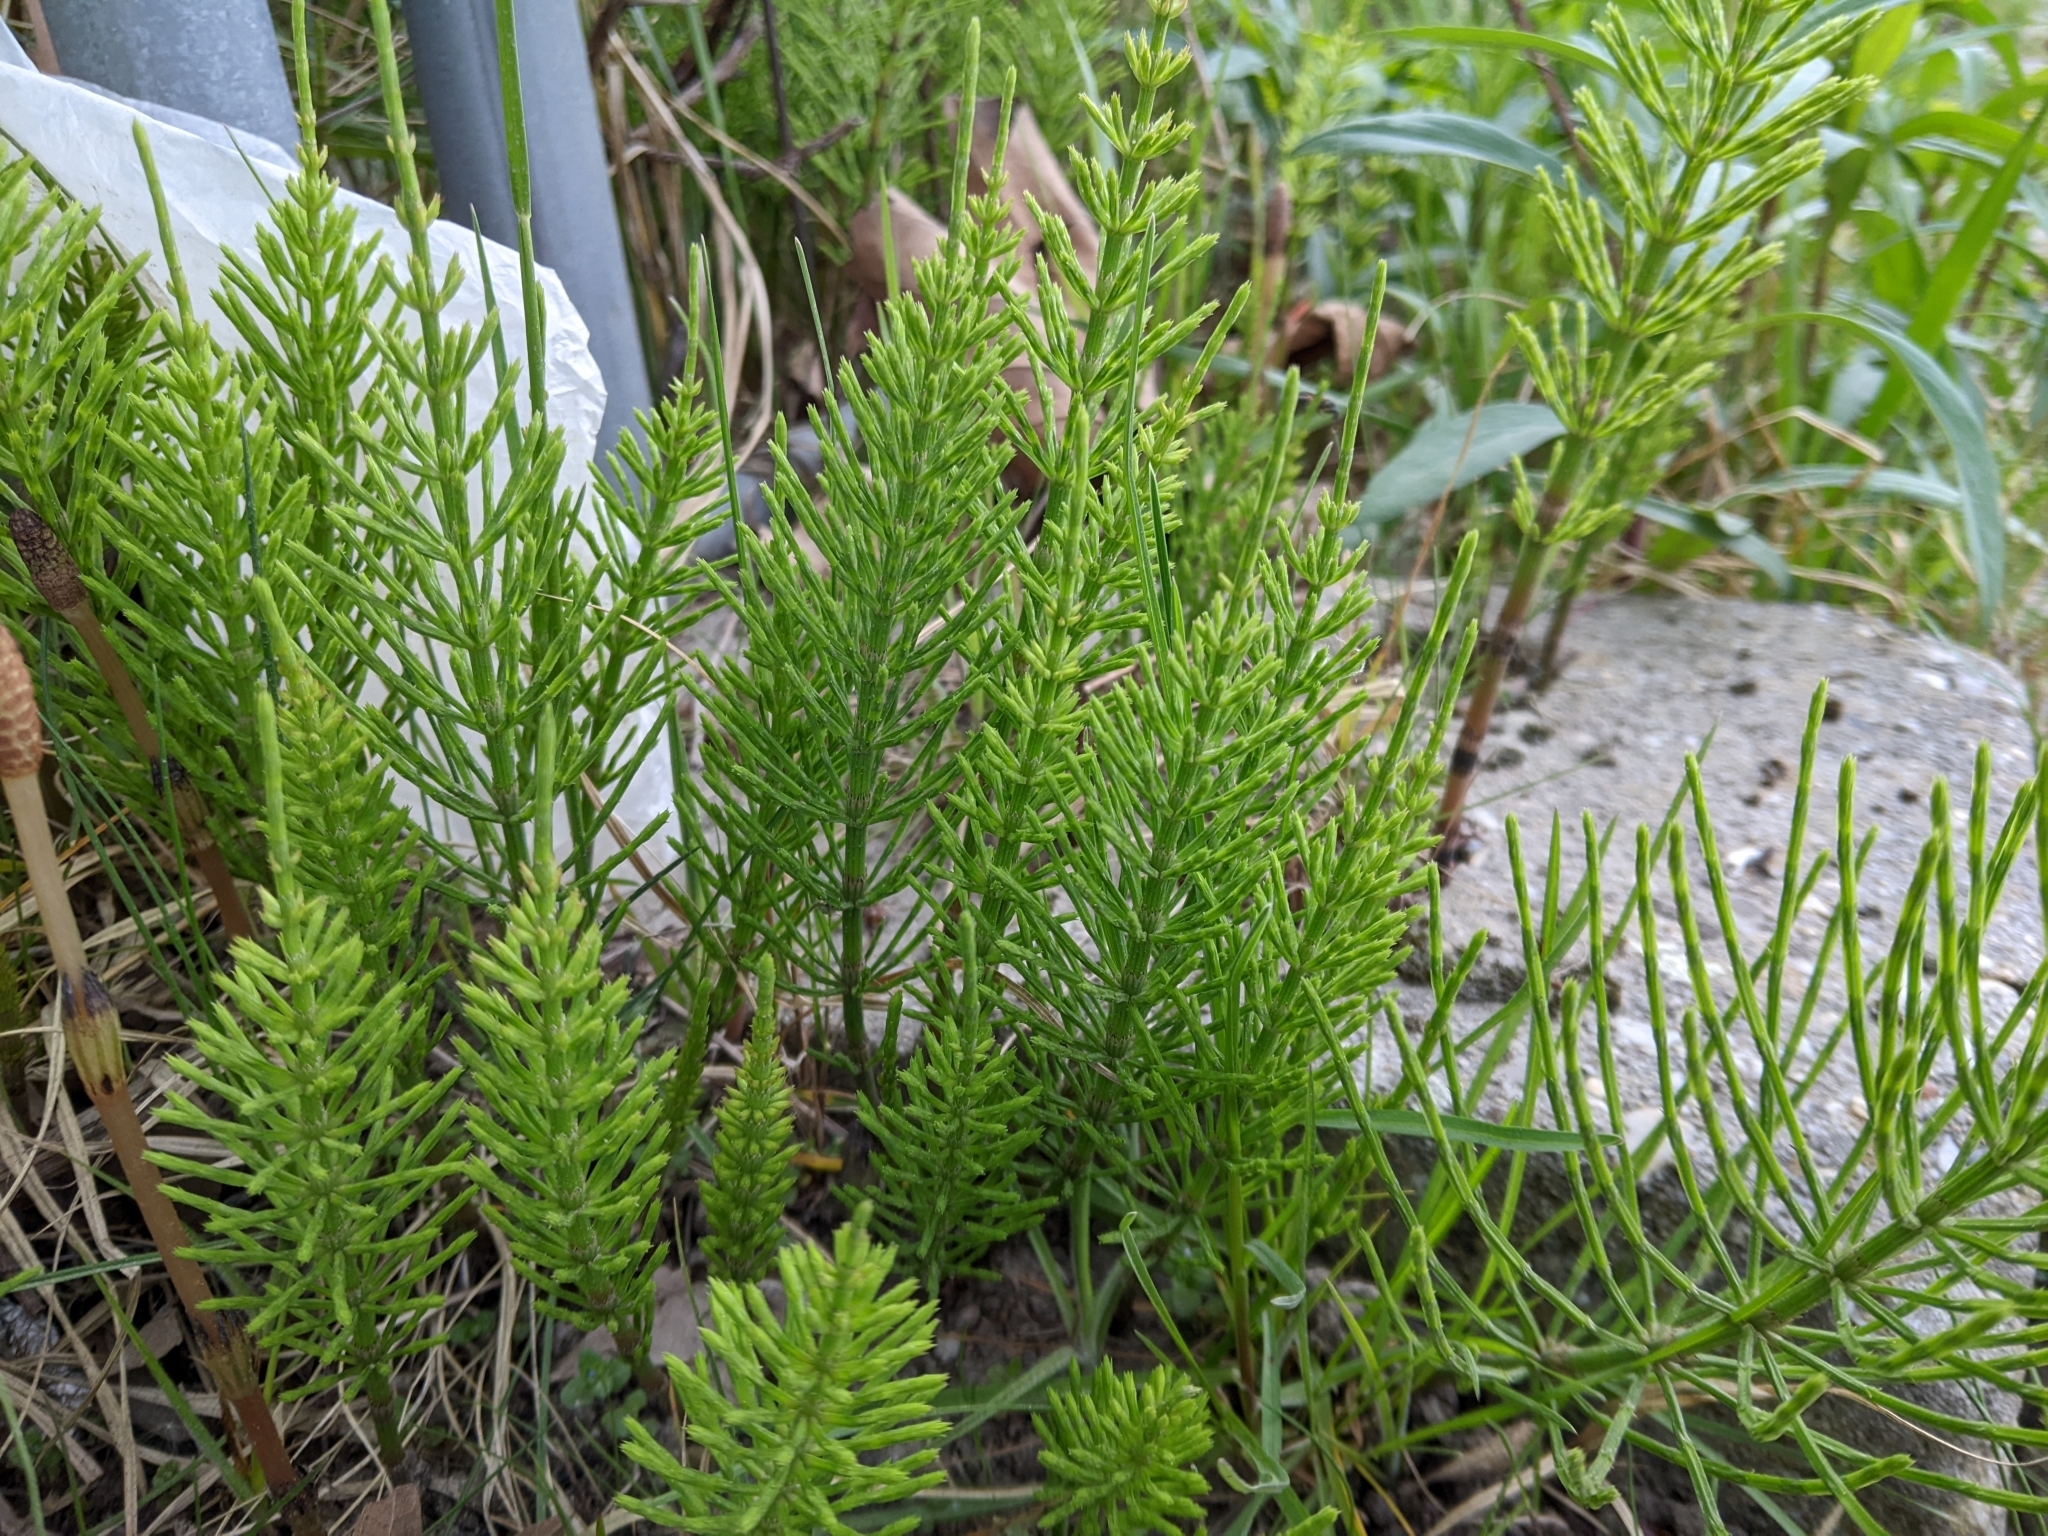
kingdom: Plantae
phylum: Tracheophyta
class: Polypodiopsida
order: Equisetales
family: Equisetaceae
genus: Equisetum
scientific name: Equisetum arvense
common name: Field horsetail
